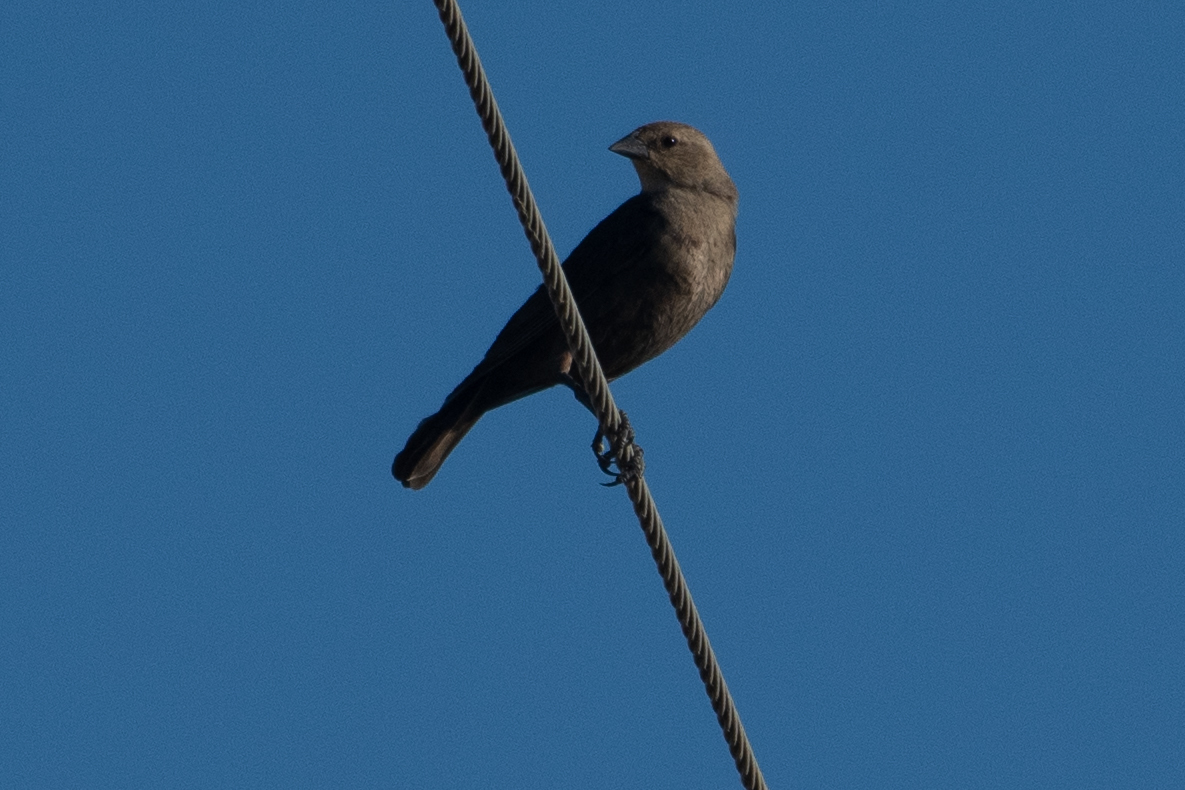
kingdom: Animalia
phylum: Chordata
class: Aves
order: Passeriformes
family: Icteridae
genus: Molothrus
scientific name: Molothrus ater
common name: Brown-headed cowbird
